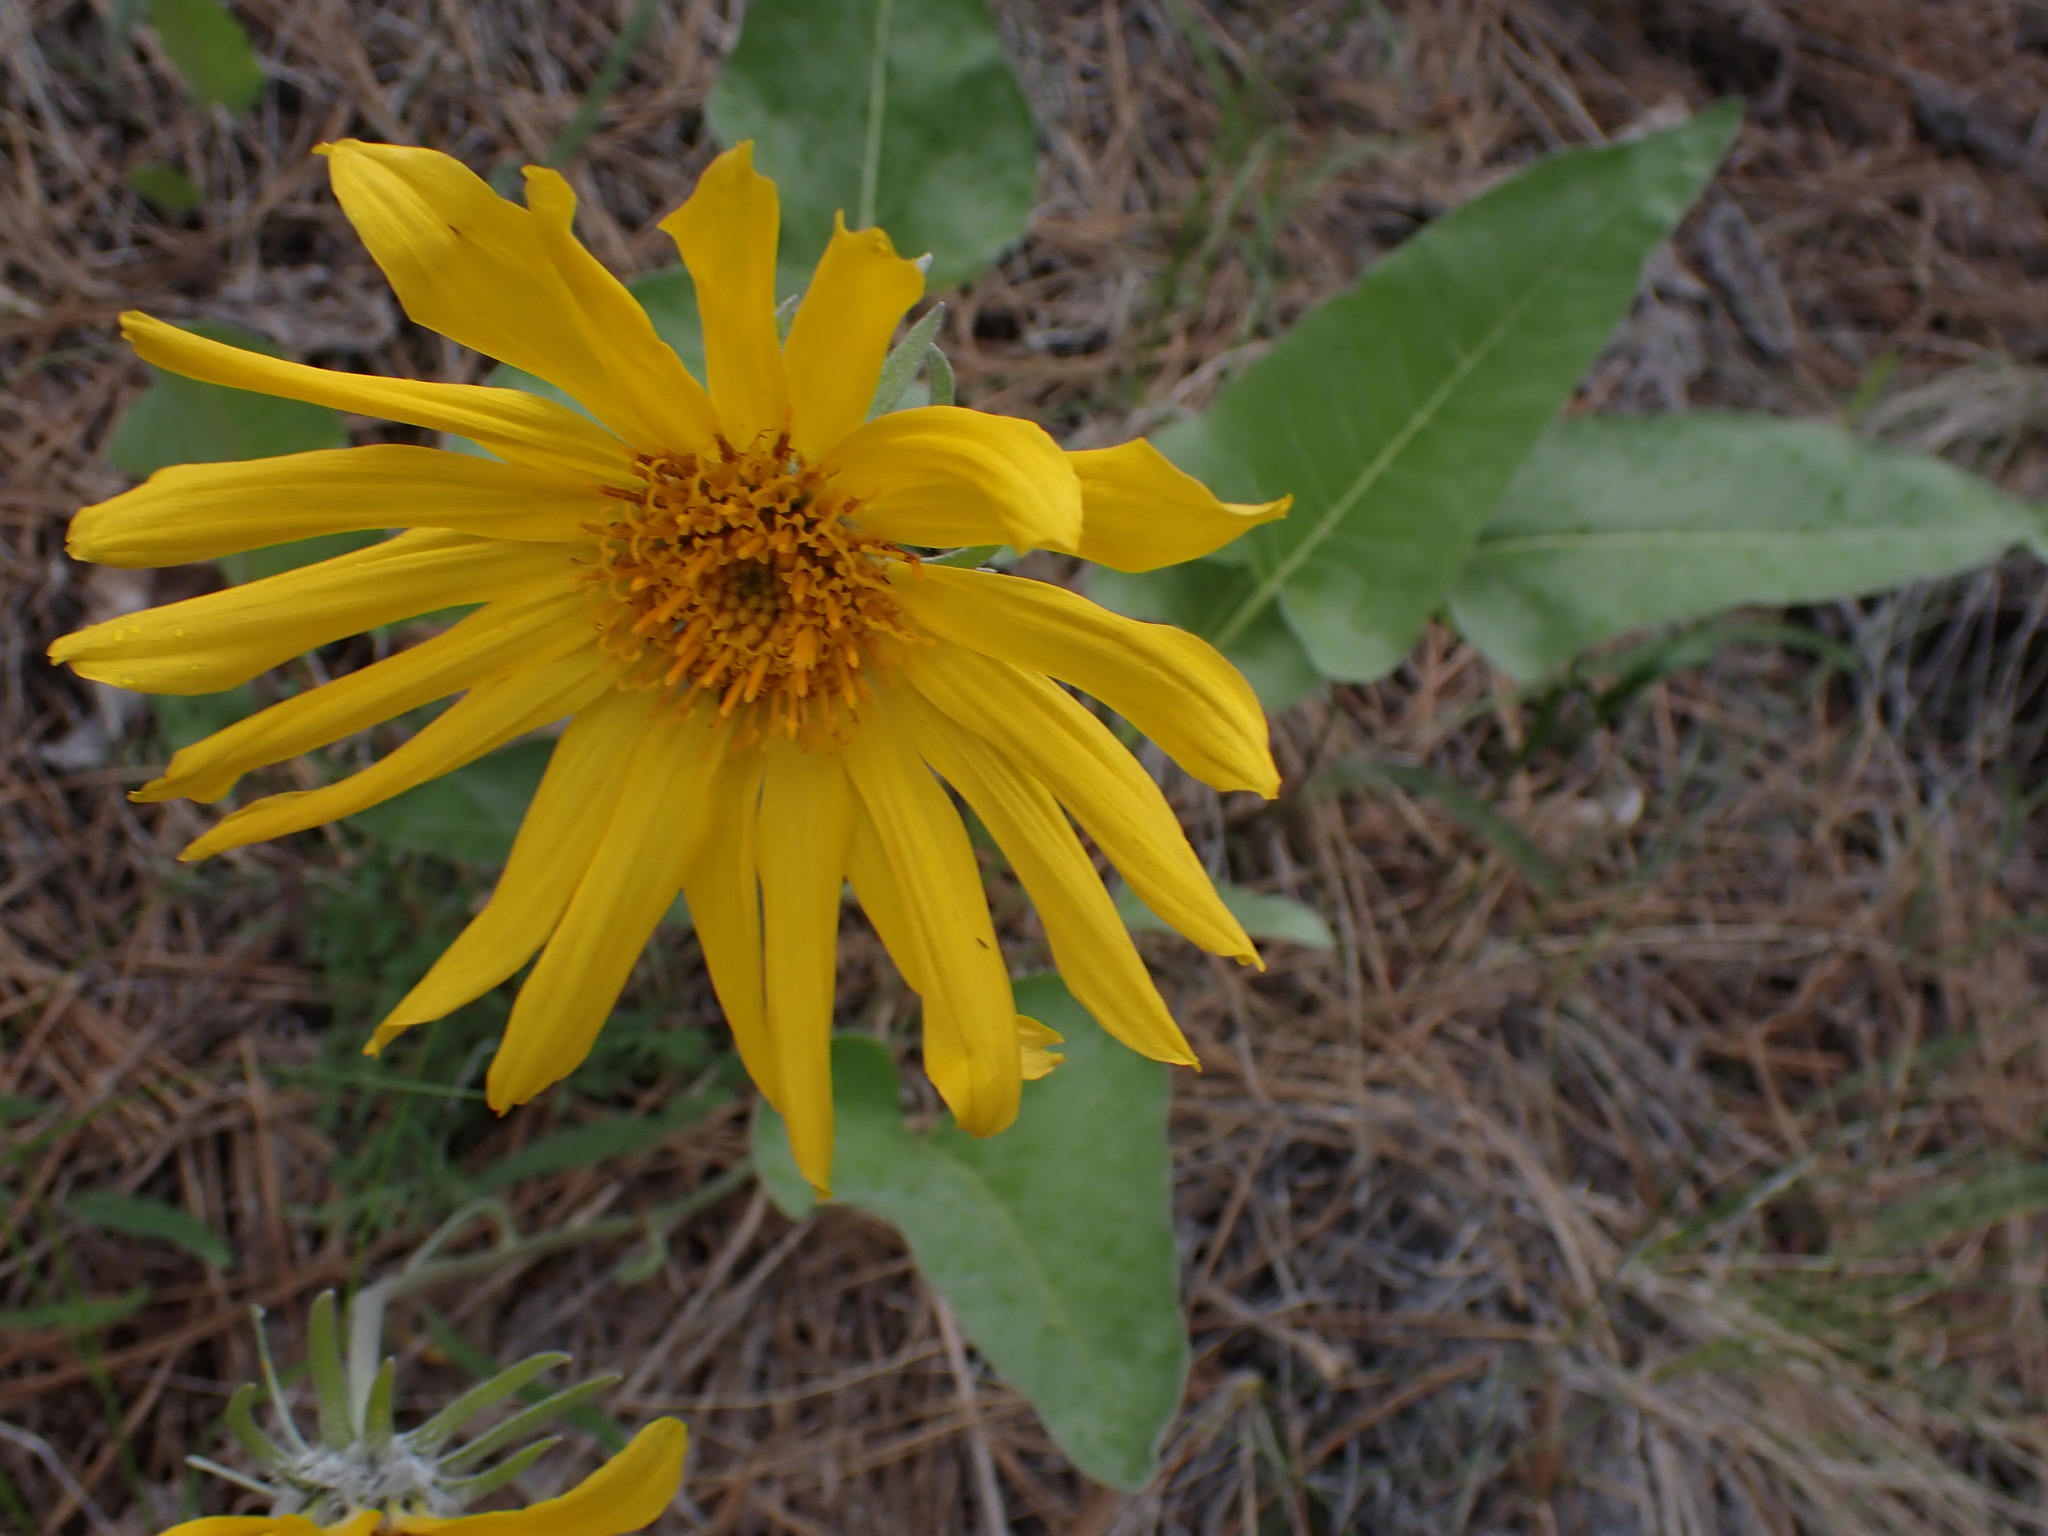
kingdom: Plantae
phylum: Tracheophyta
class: Magnoliopsida
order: Asterales
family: Asteraceae
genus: Wyethia
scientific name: Wyethia sagittata
